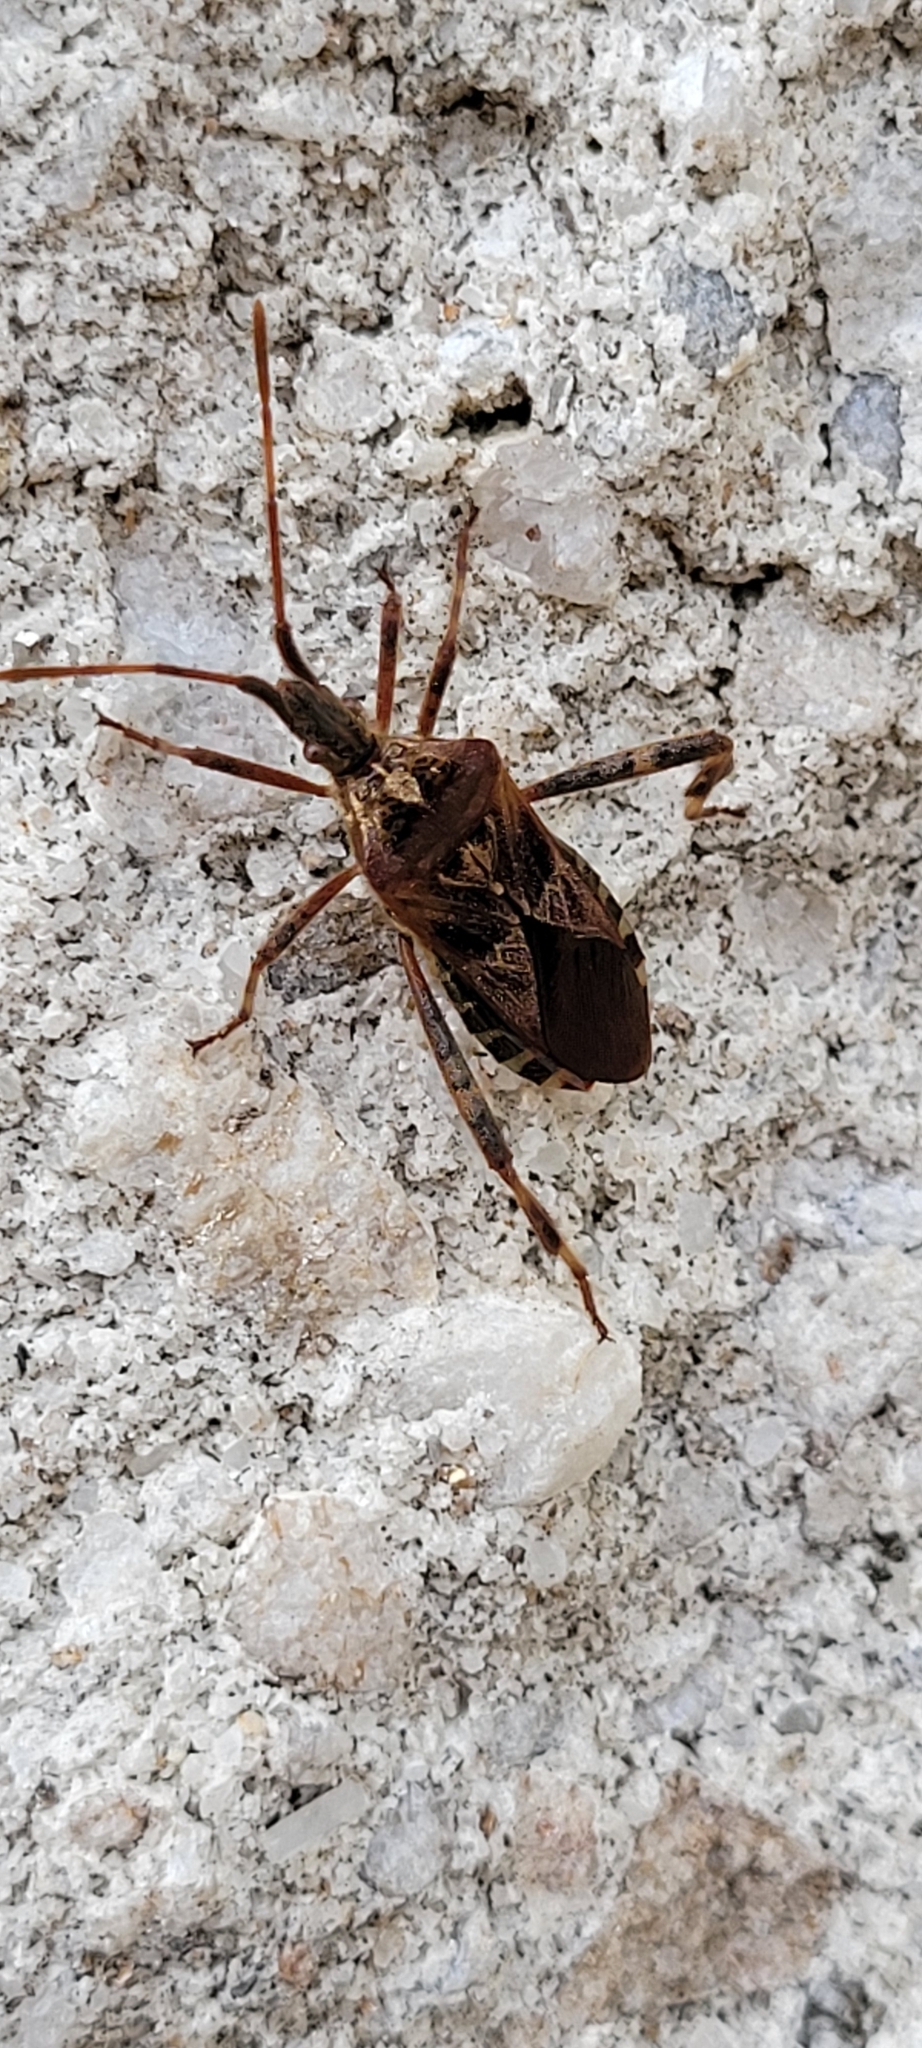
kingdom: Animalia
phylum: Arthropoda
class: Insecta
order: Hemiptera
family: Coreidae
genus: Leptoglossus
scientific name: Leptoglossus occidentalis
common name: Western conifer-seed bug
